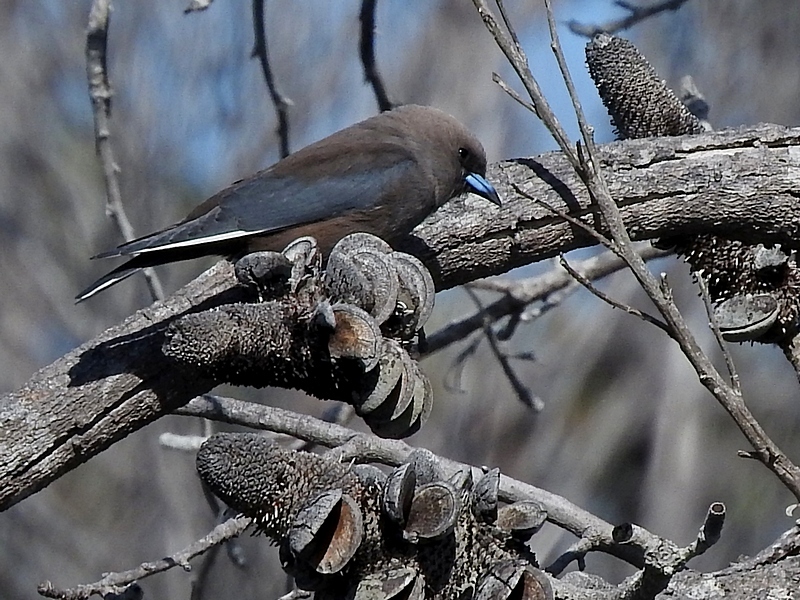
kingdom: Animalia
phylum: Chordata
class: Aves
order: Passeriformes
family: Artamidae
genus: Artamus
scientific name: Artamus cyanopterus
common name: Dusky woodswallow
